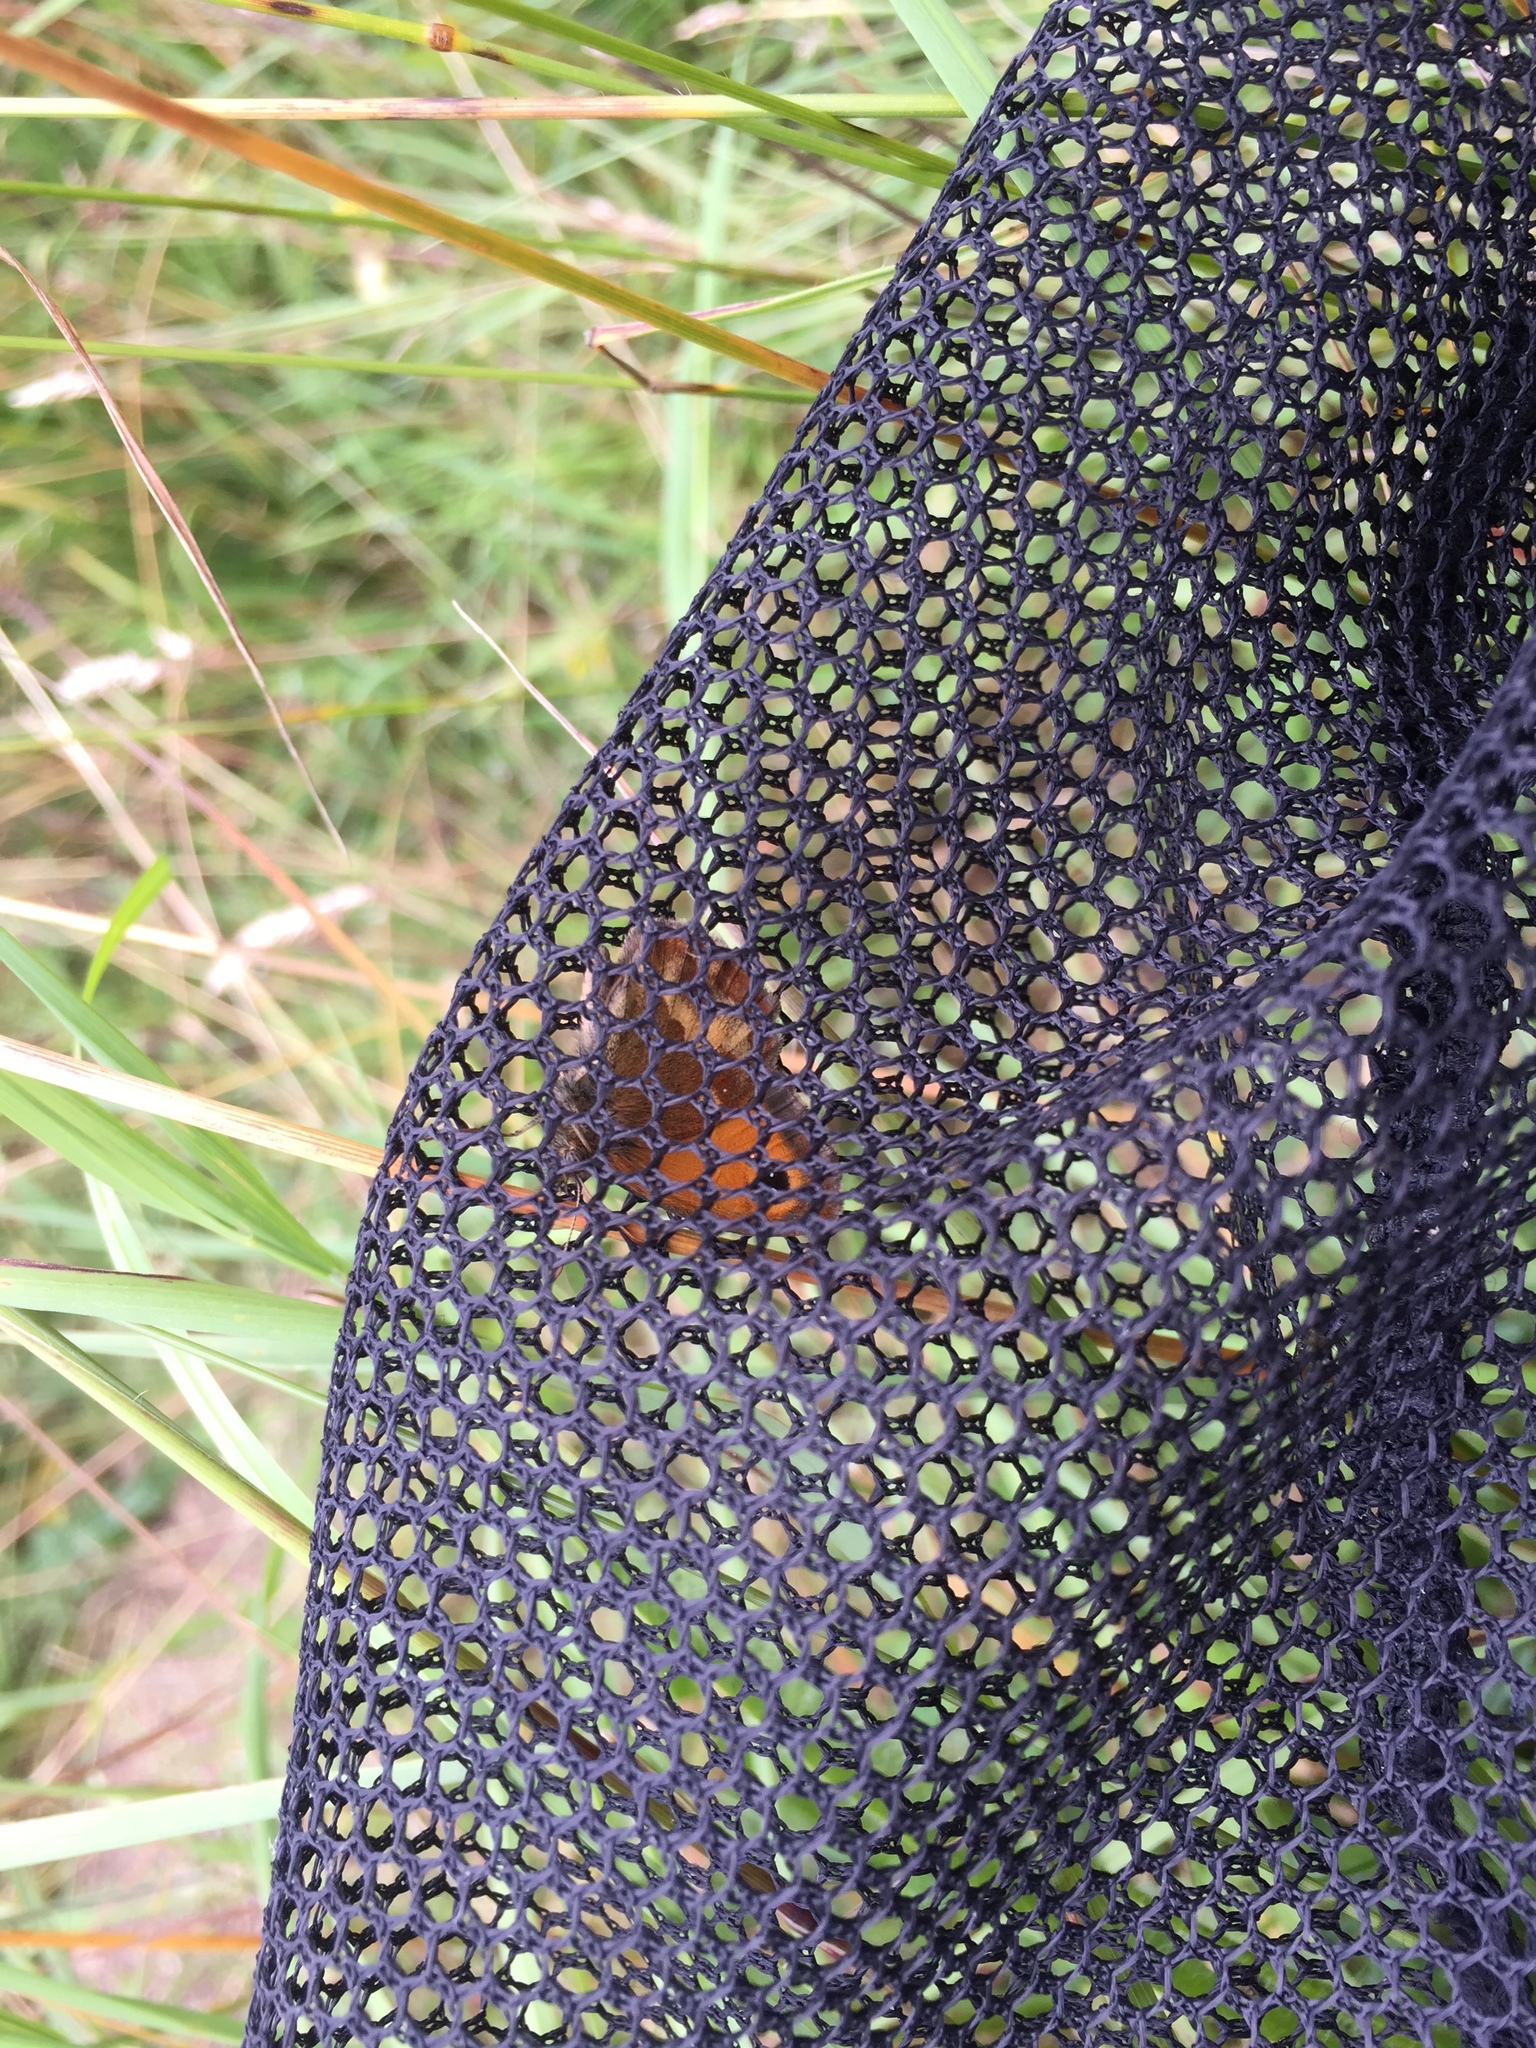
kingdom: Animalia
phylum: Arthropoda
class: Insecta
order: Lepidoptera
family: Nymphalidae
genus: Pyronia
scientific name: Pyronia tithonus
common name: Gatekeeper
